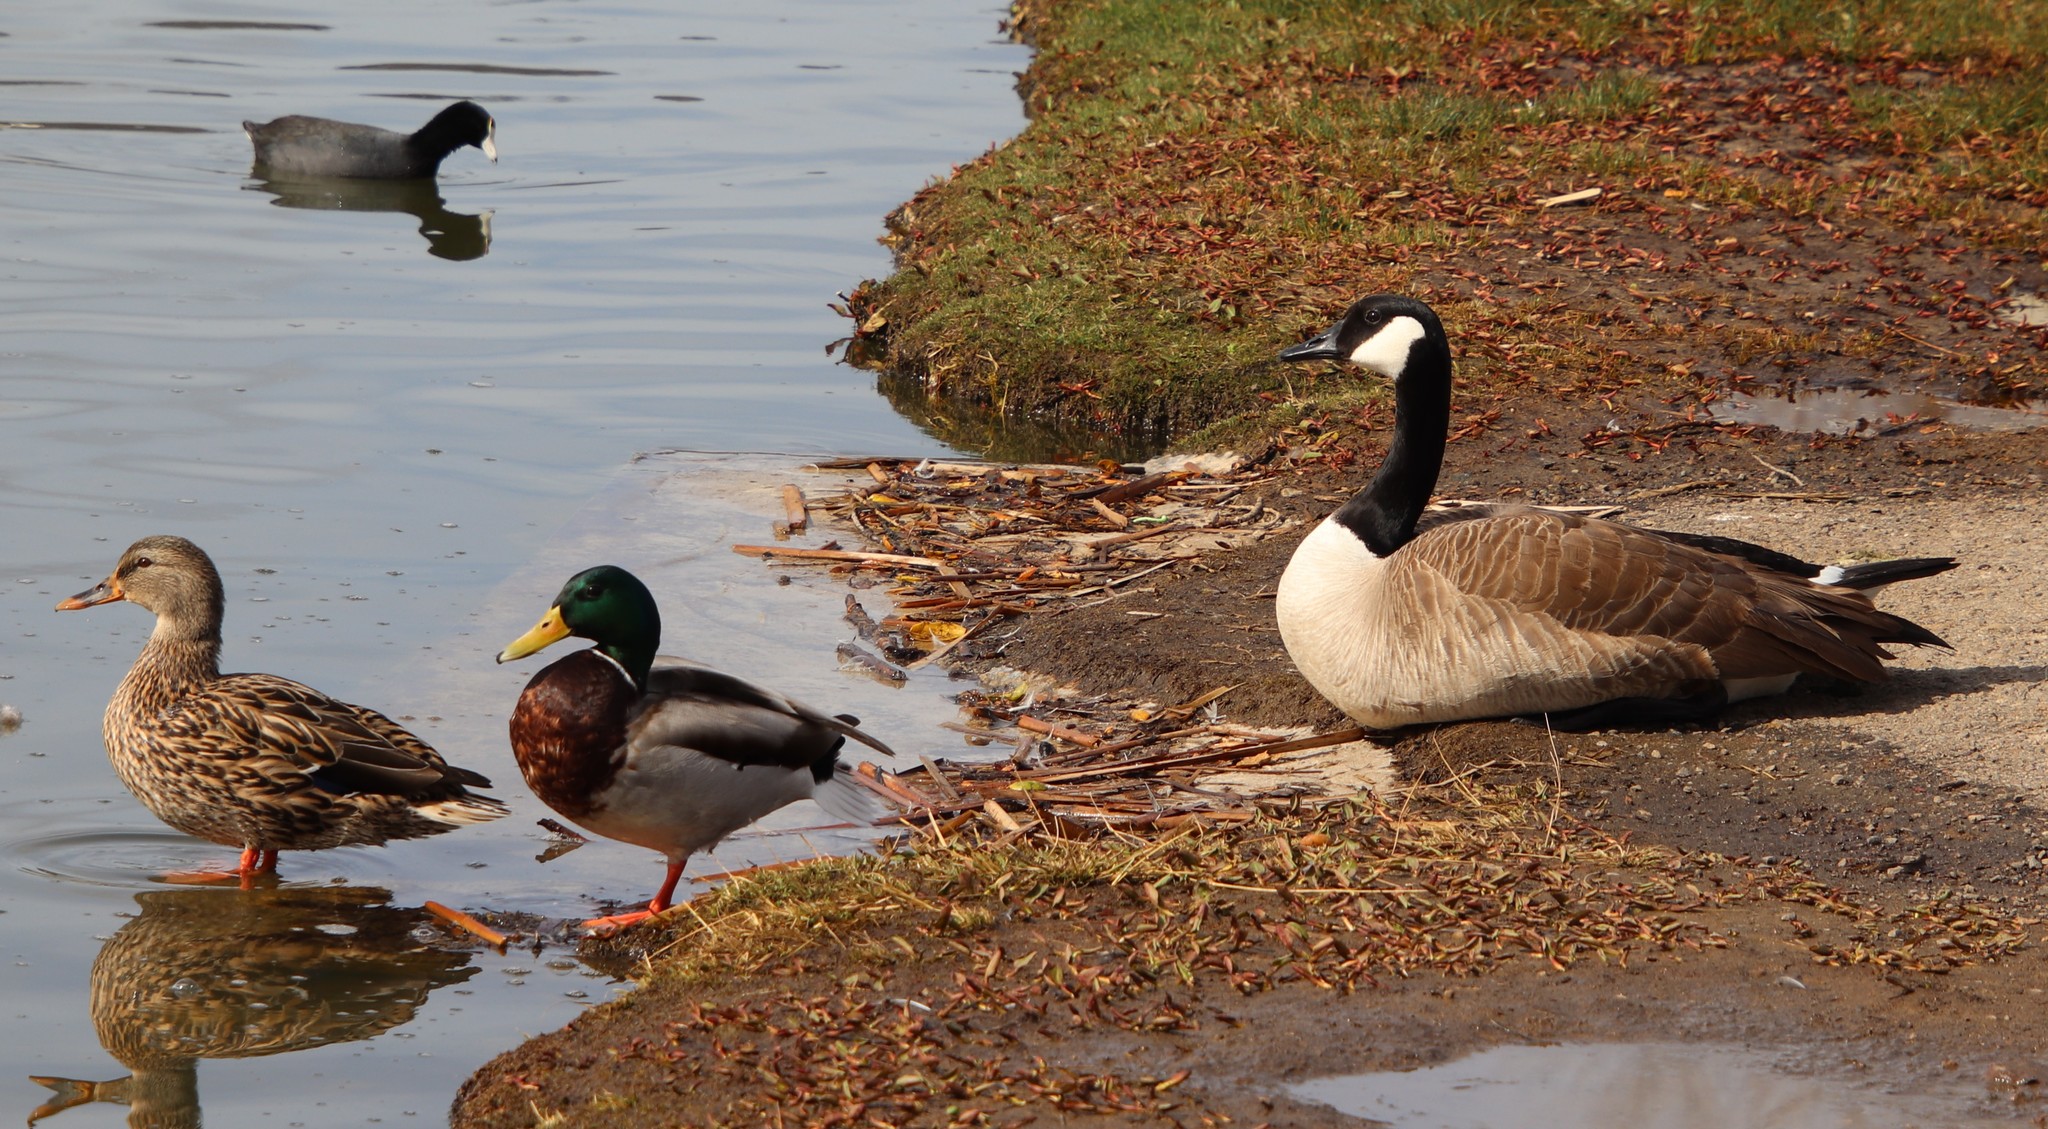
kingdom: Animalia
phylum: Chordata
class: Aves
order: Anseriformes
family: Anatidae
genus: Branta
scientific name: Branta canadensis
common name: Canada goose
